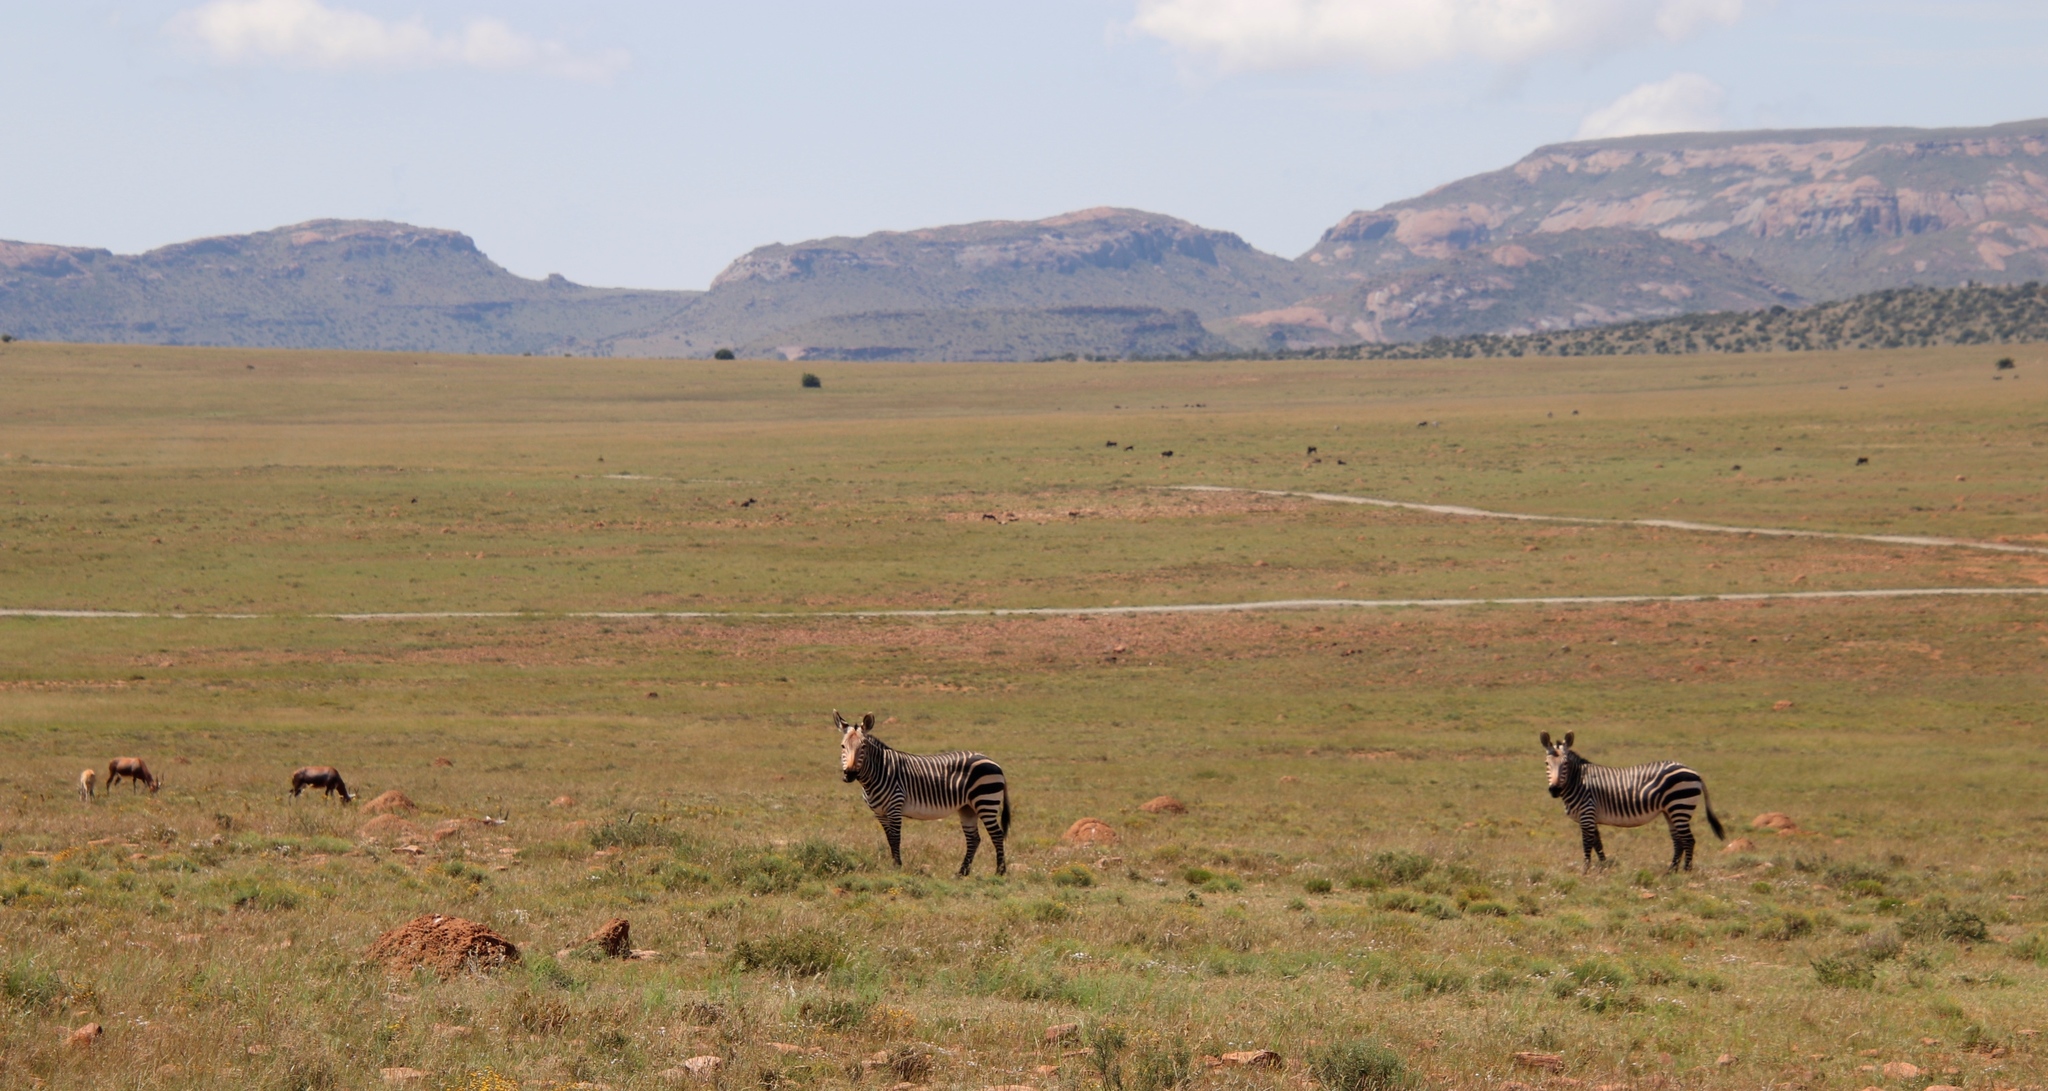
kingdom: Animalia
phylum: Chordata
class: Mammalia
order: Perissodactyla
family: Equidae
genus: Equus
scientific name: Equus zebra
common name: Mountain zebra
